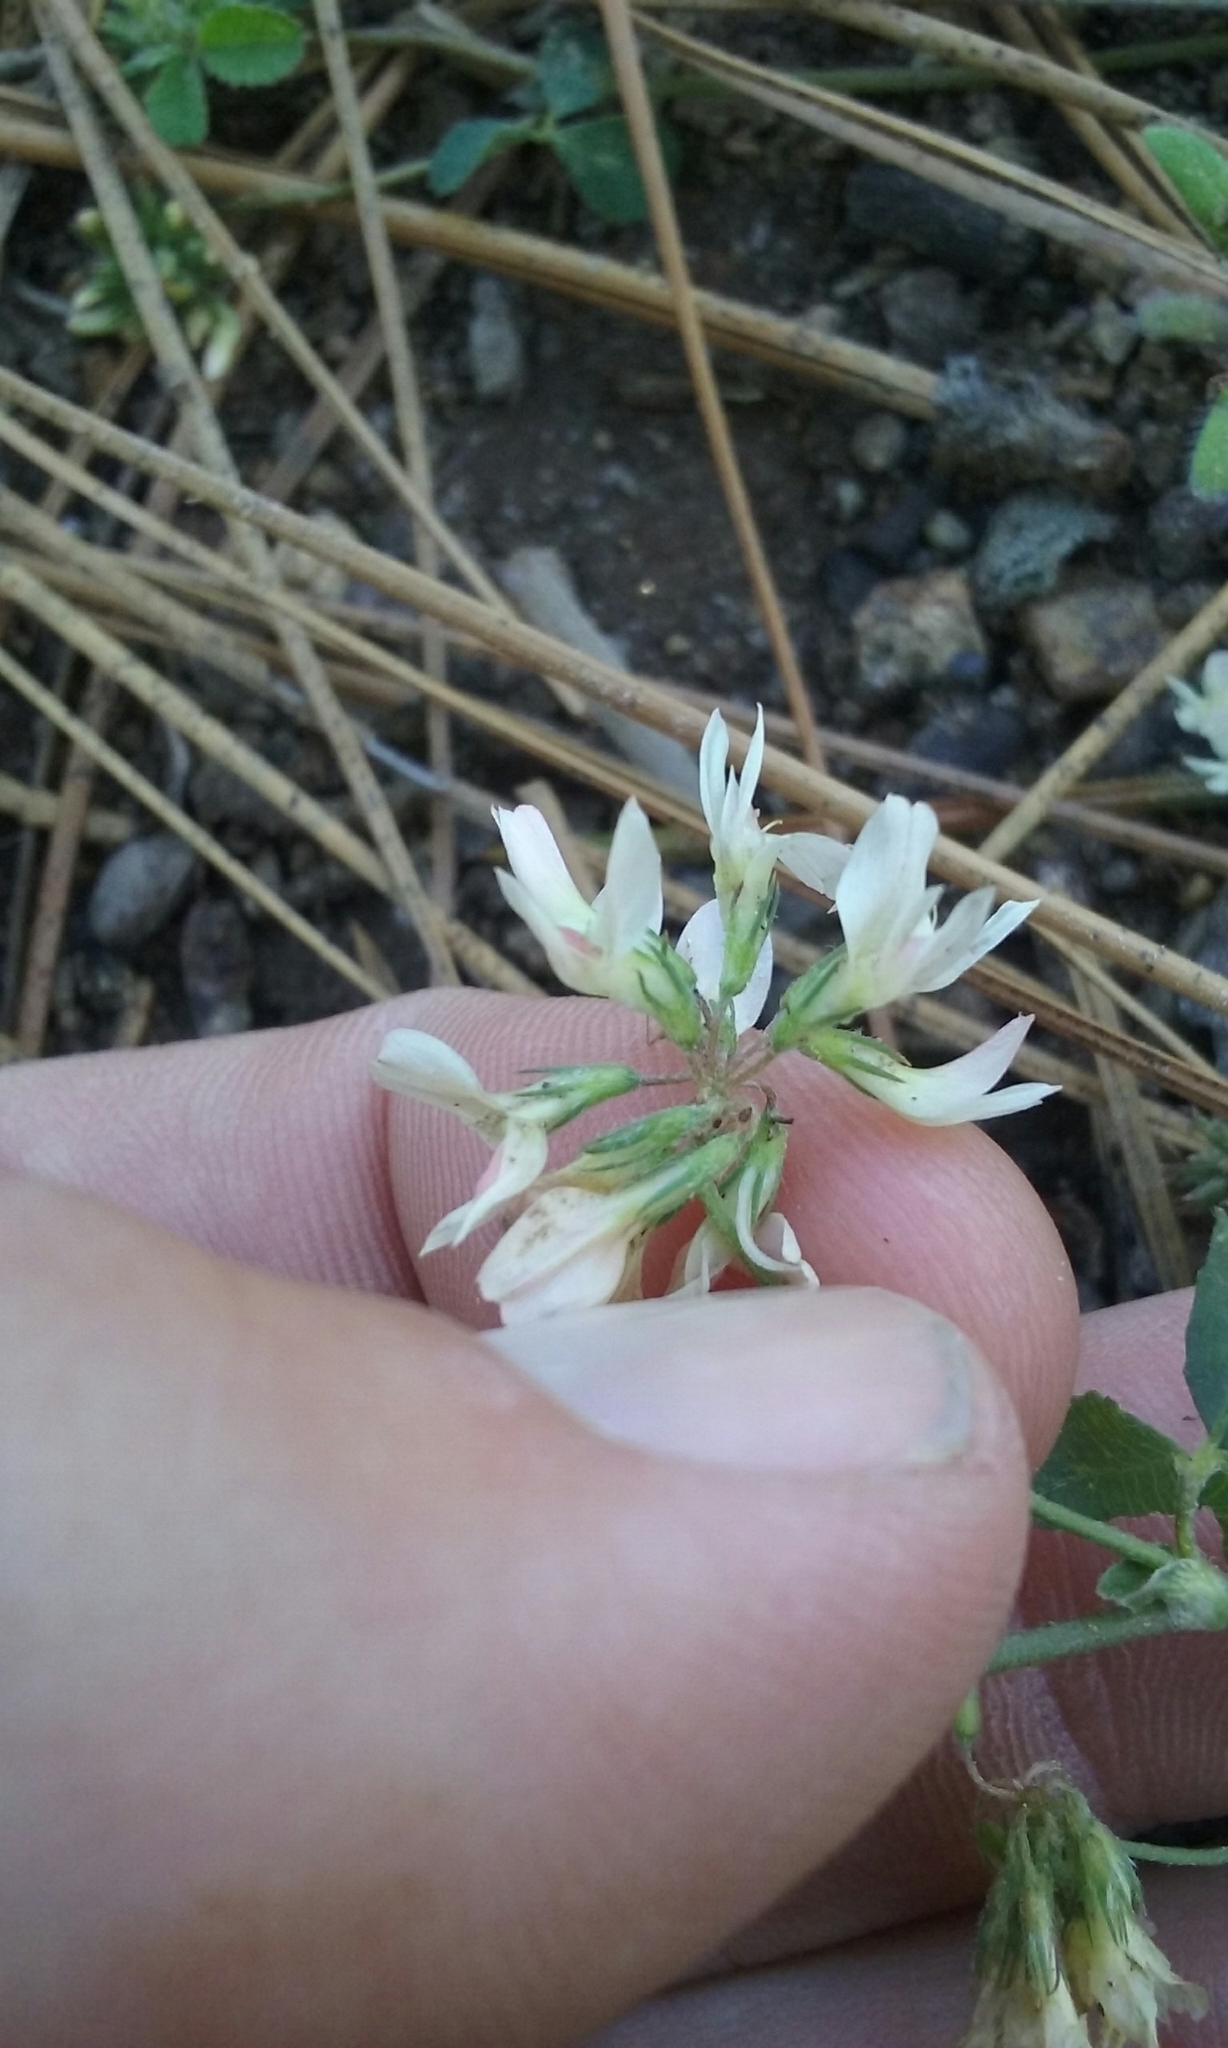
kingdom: Plantae
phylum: Tracheophyta
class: Magnoliopsida
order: Fabales
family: Fabaceae
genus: Trifolium
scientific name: Trifolium breweri
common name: Forest clover
